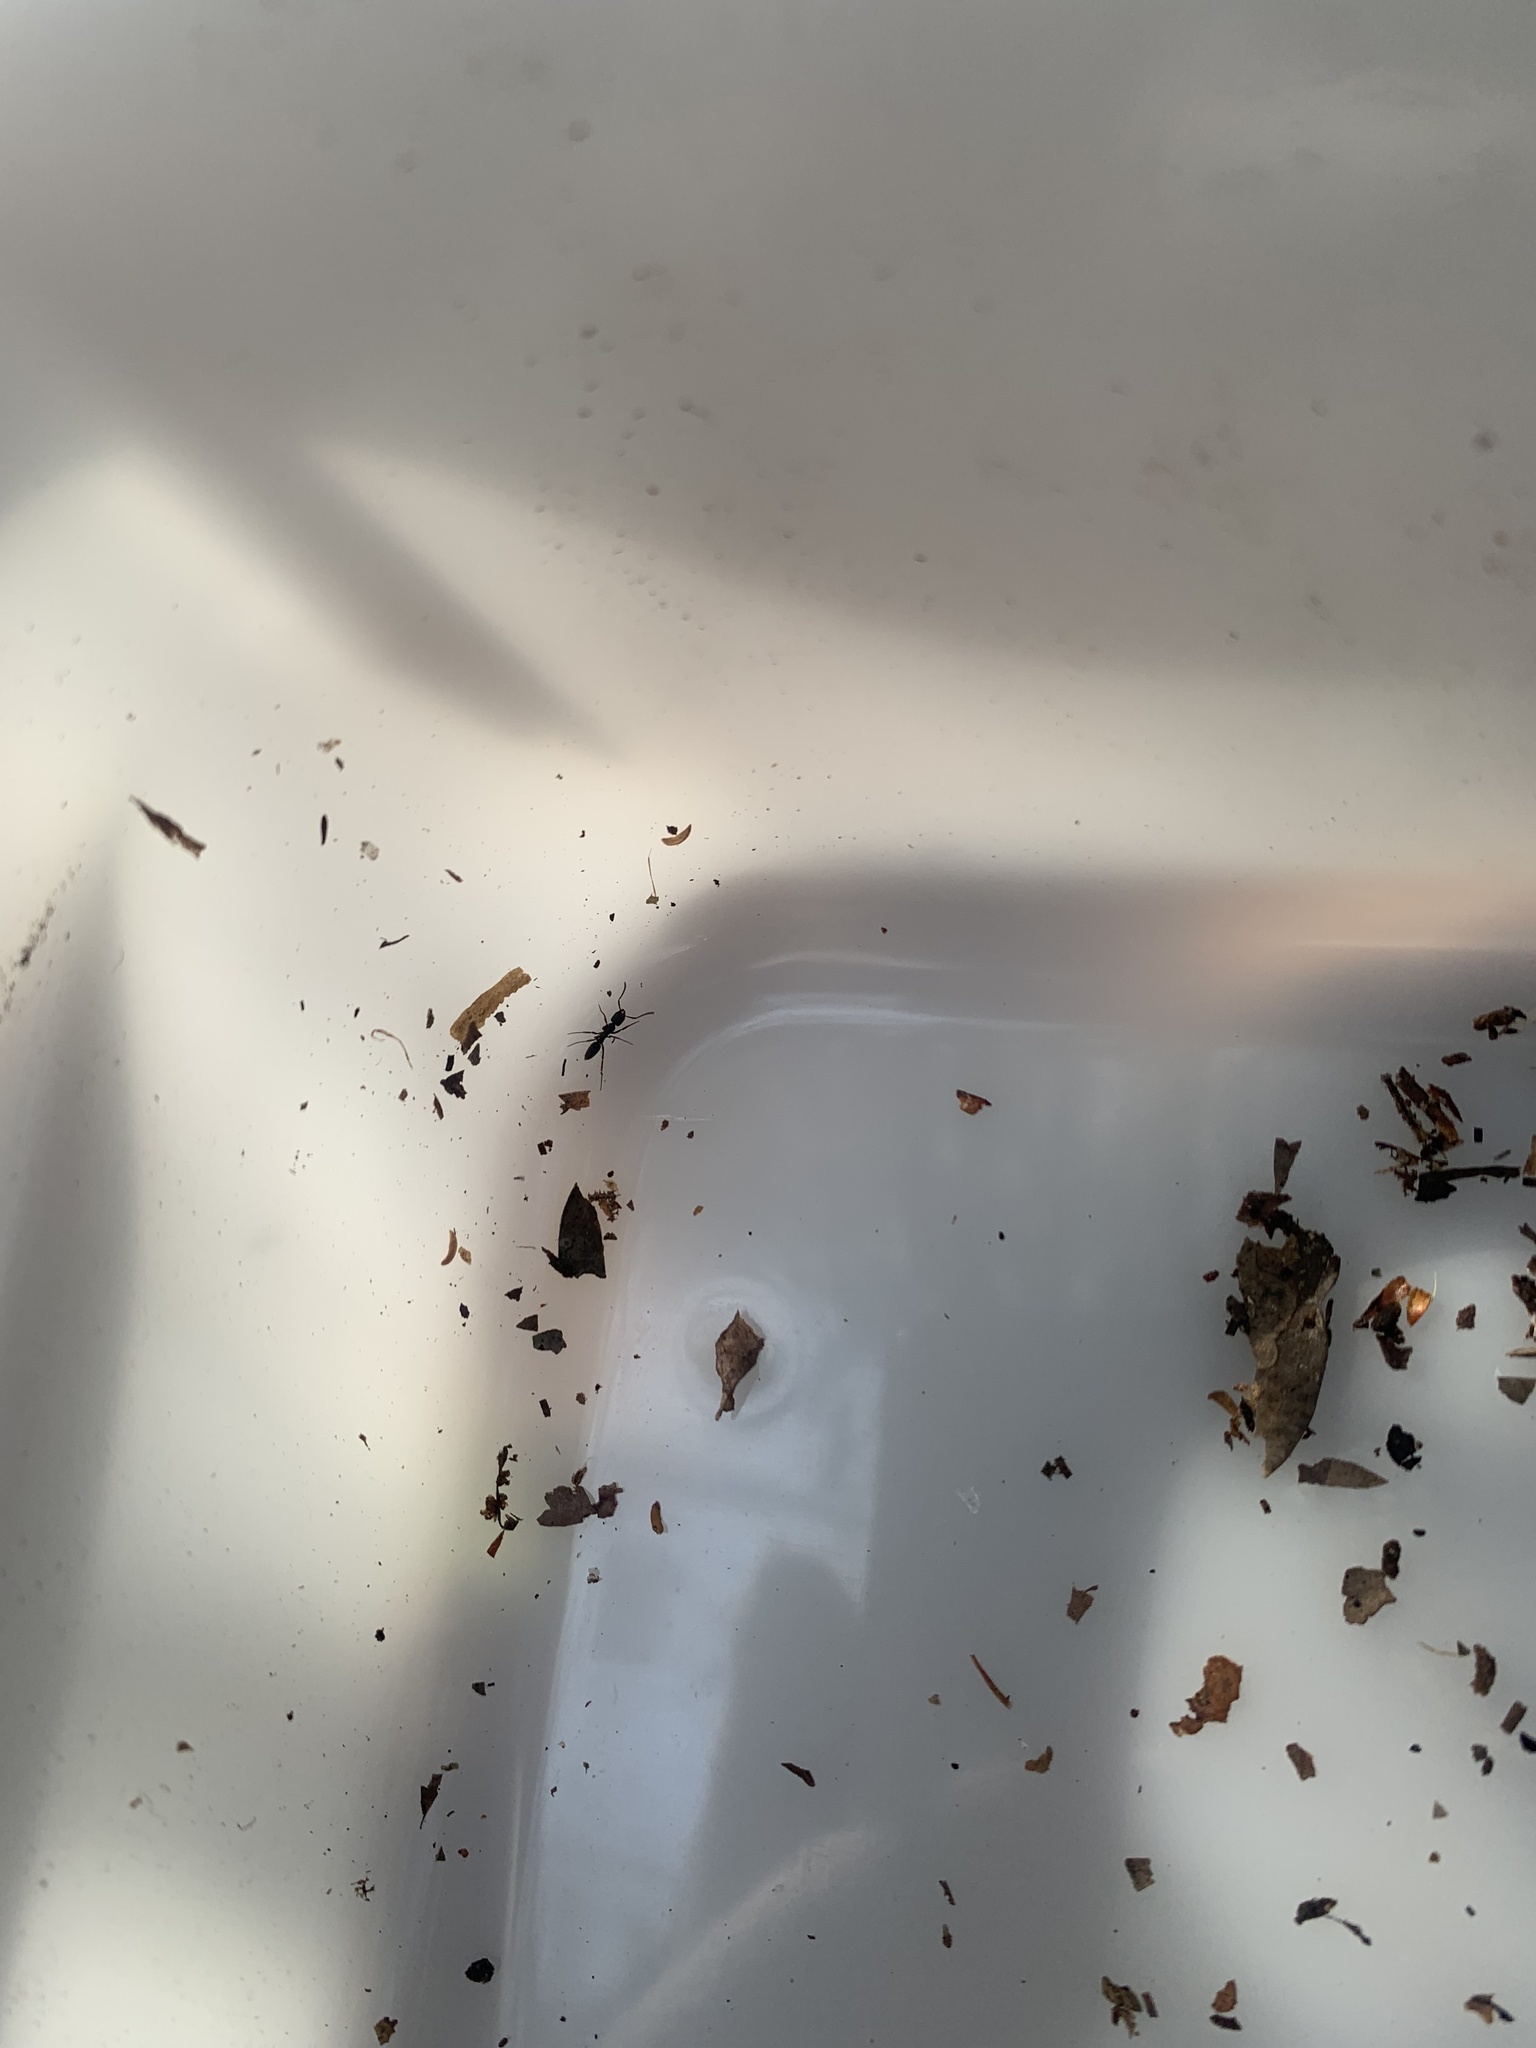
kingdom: Animalia
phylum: Arthropoda
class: Insecta
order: Hymenoptera
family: Formicidae
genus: Pachycondyla
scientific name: Pachycondyla chinensis
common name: Asian needle ant
